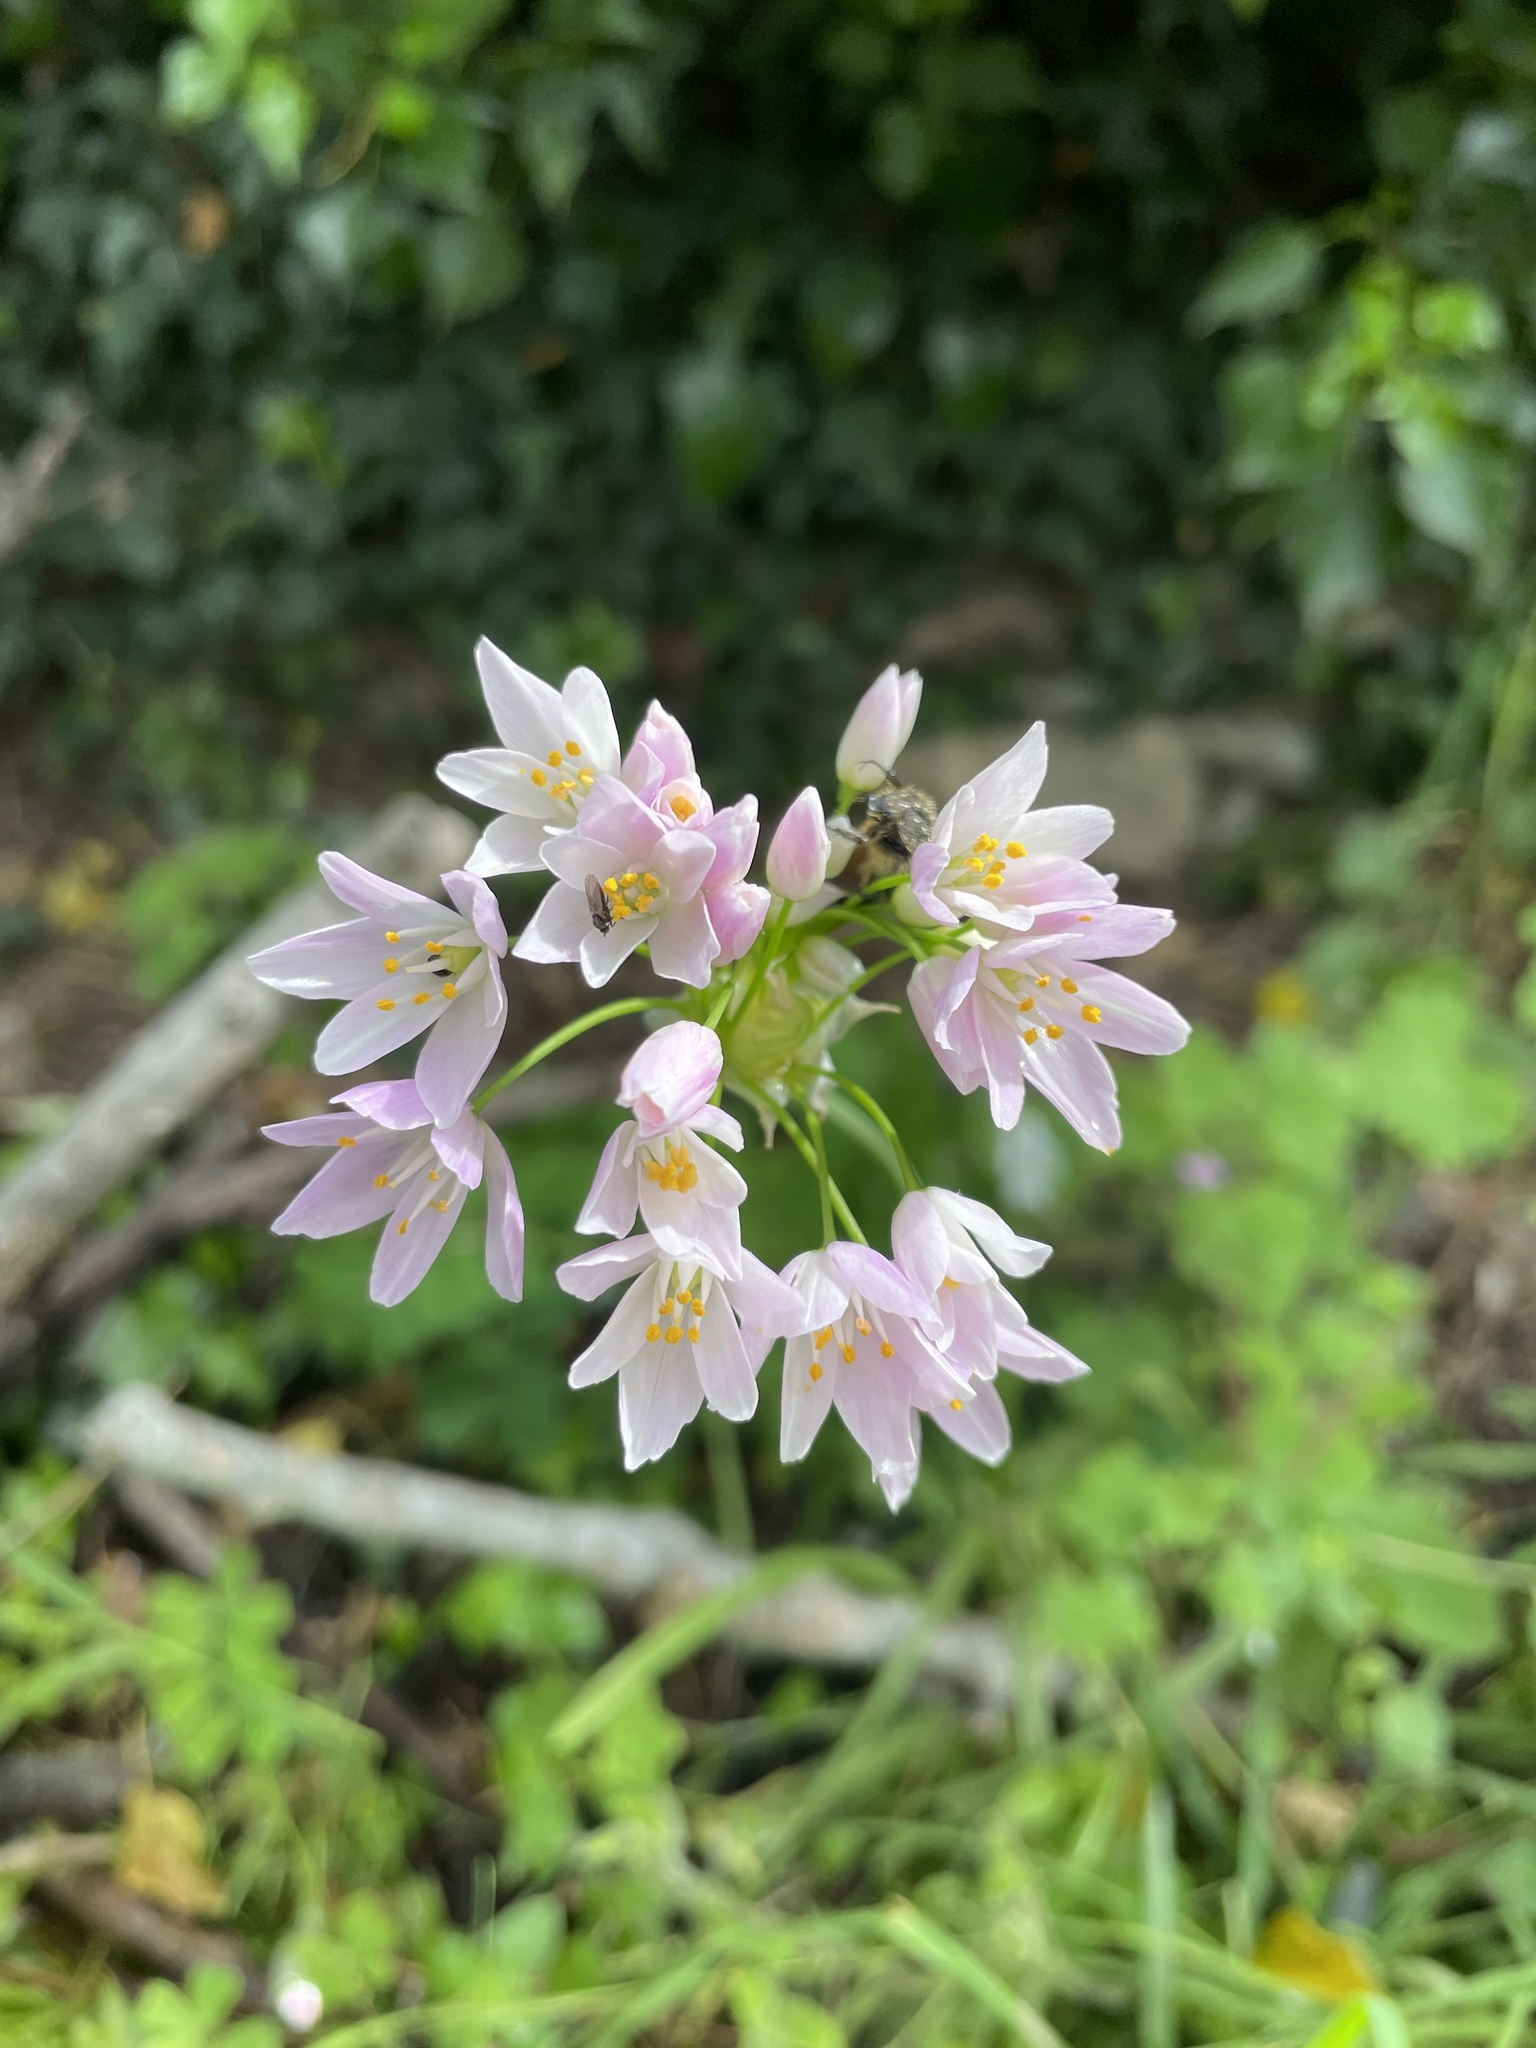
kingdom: Plantae
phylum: Tracheophyta
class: Liliopsida
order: Asparagales
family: Amaryllidaceae
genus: Allium
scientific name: Allium roseum
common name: Rosy garlic
